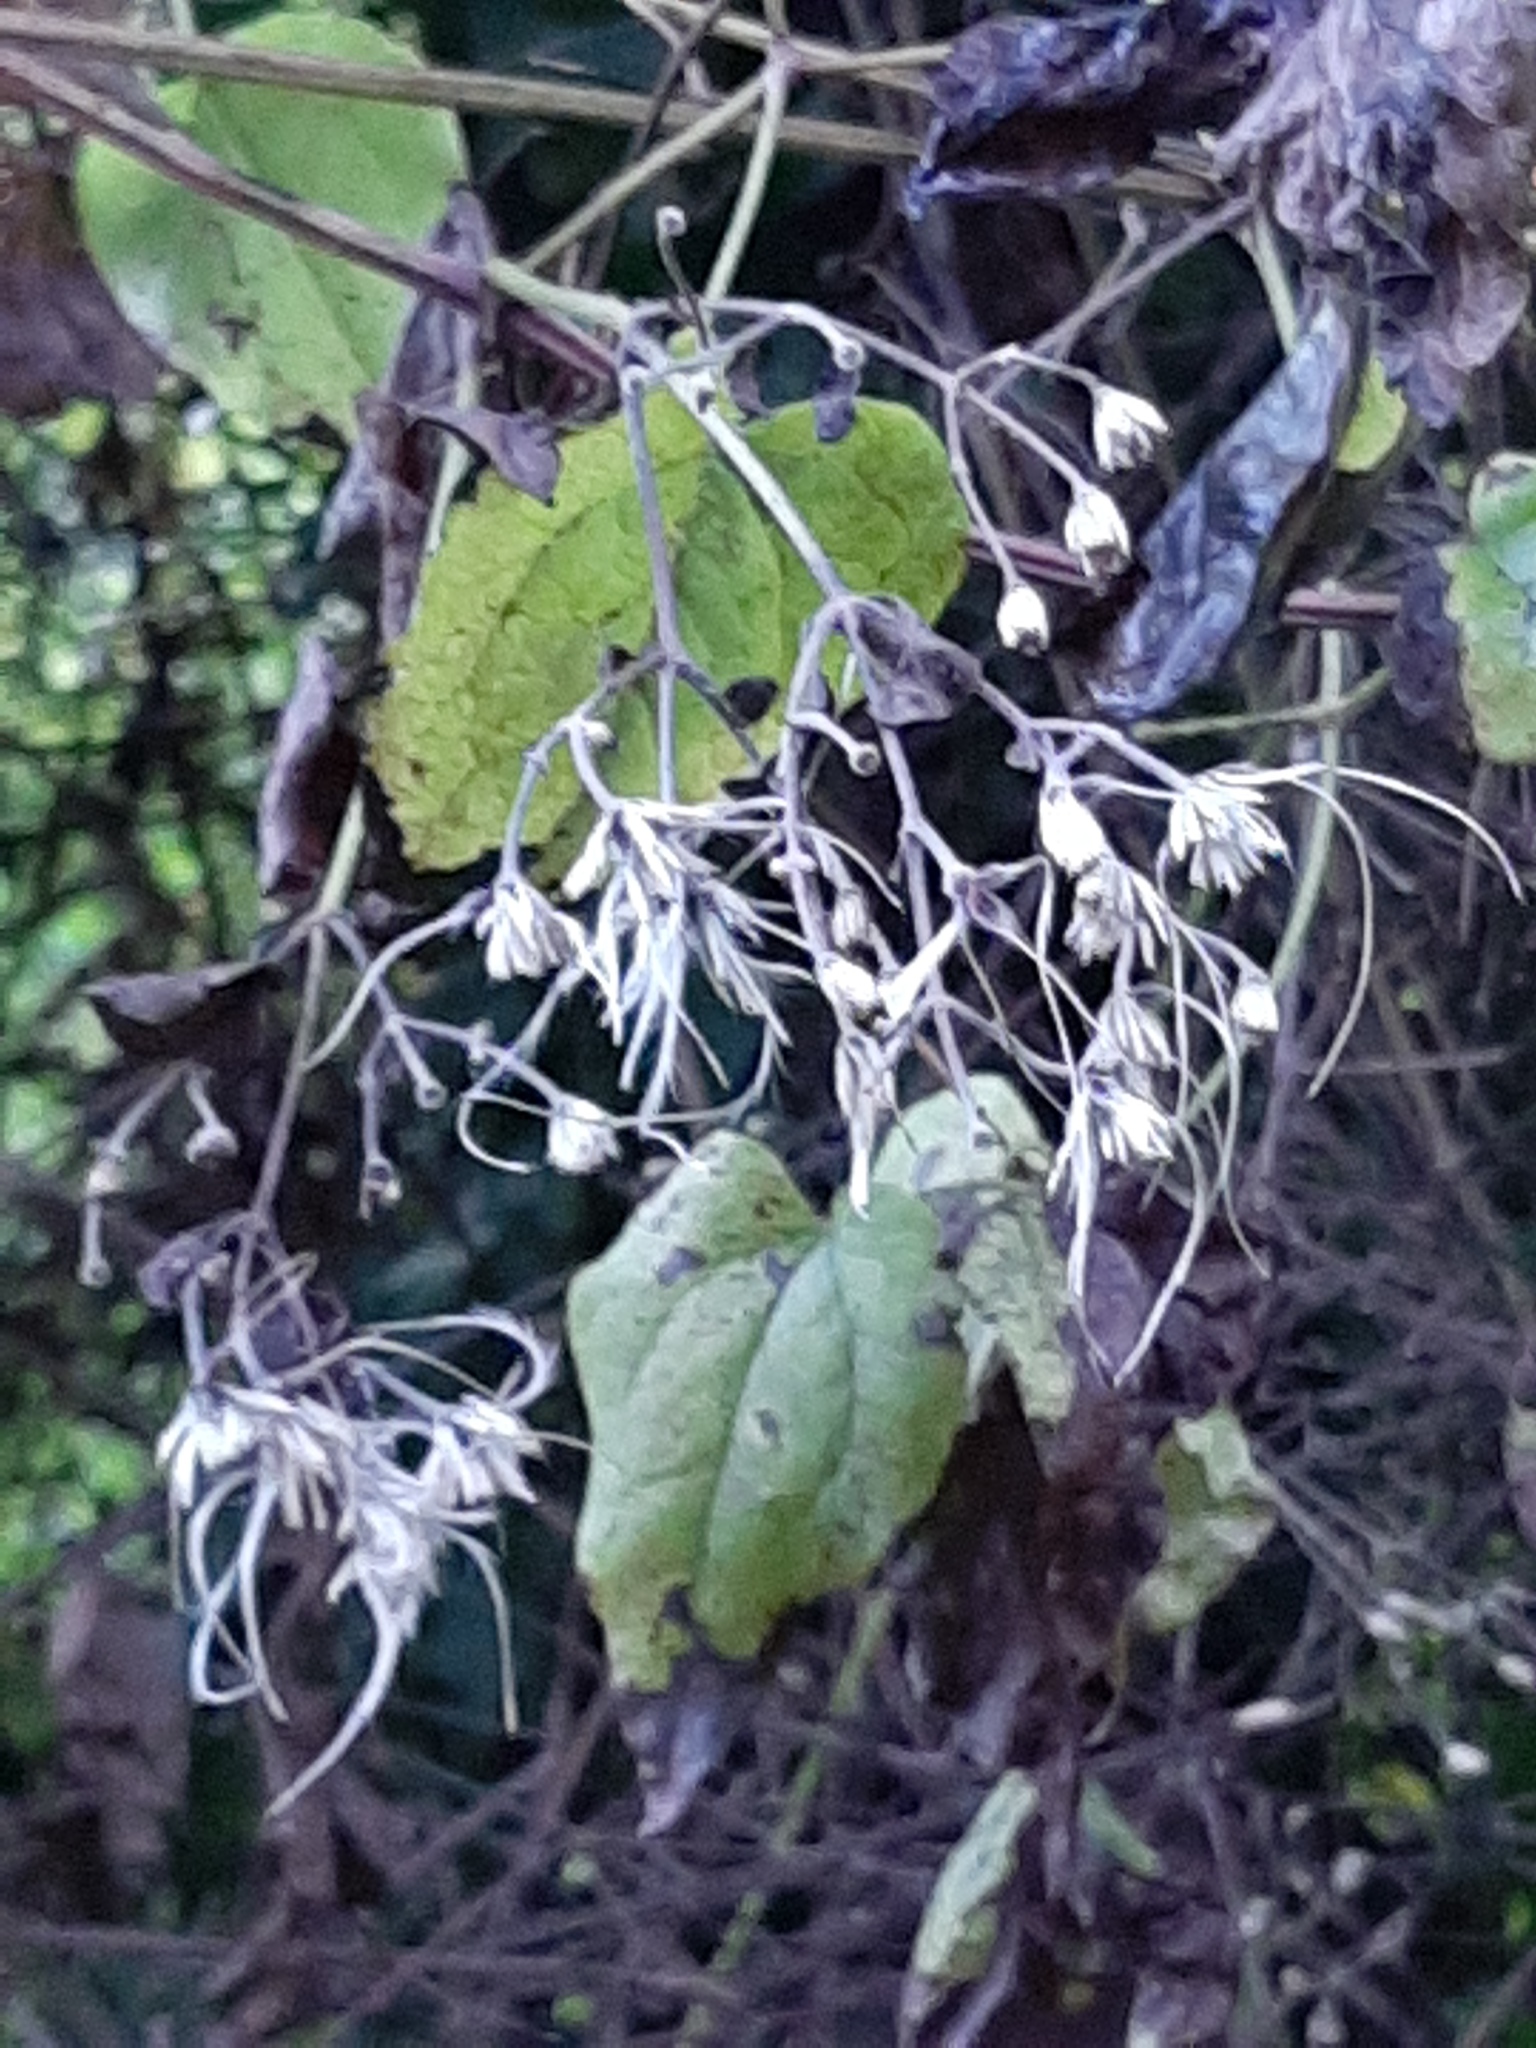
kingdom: Plantae
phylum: Tracheophyta
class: Magnoliopsida
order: Ranunculales
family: Ranunculaceae
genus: Clematis
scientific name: Clematis vitalba
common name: Evergreen clematis
